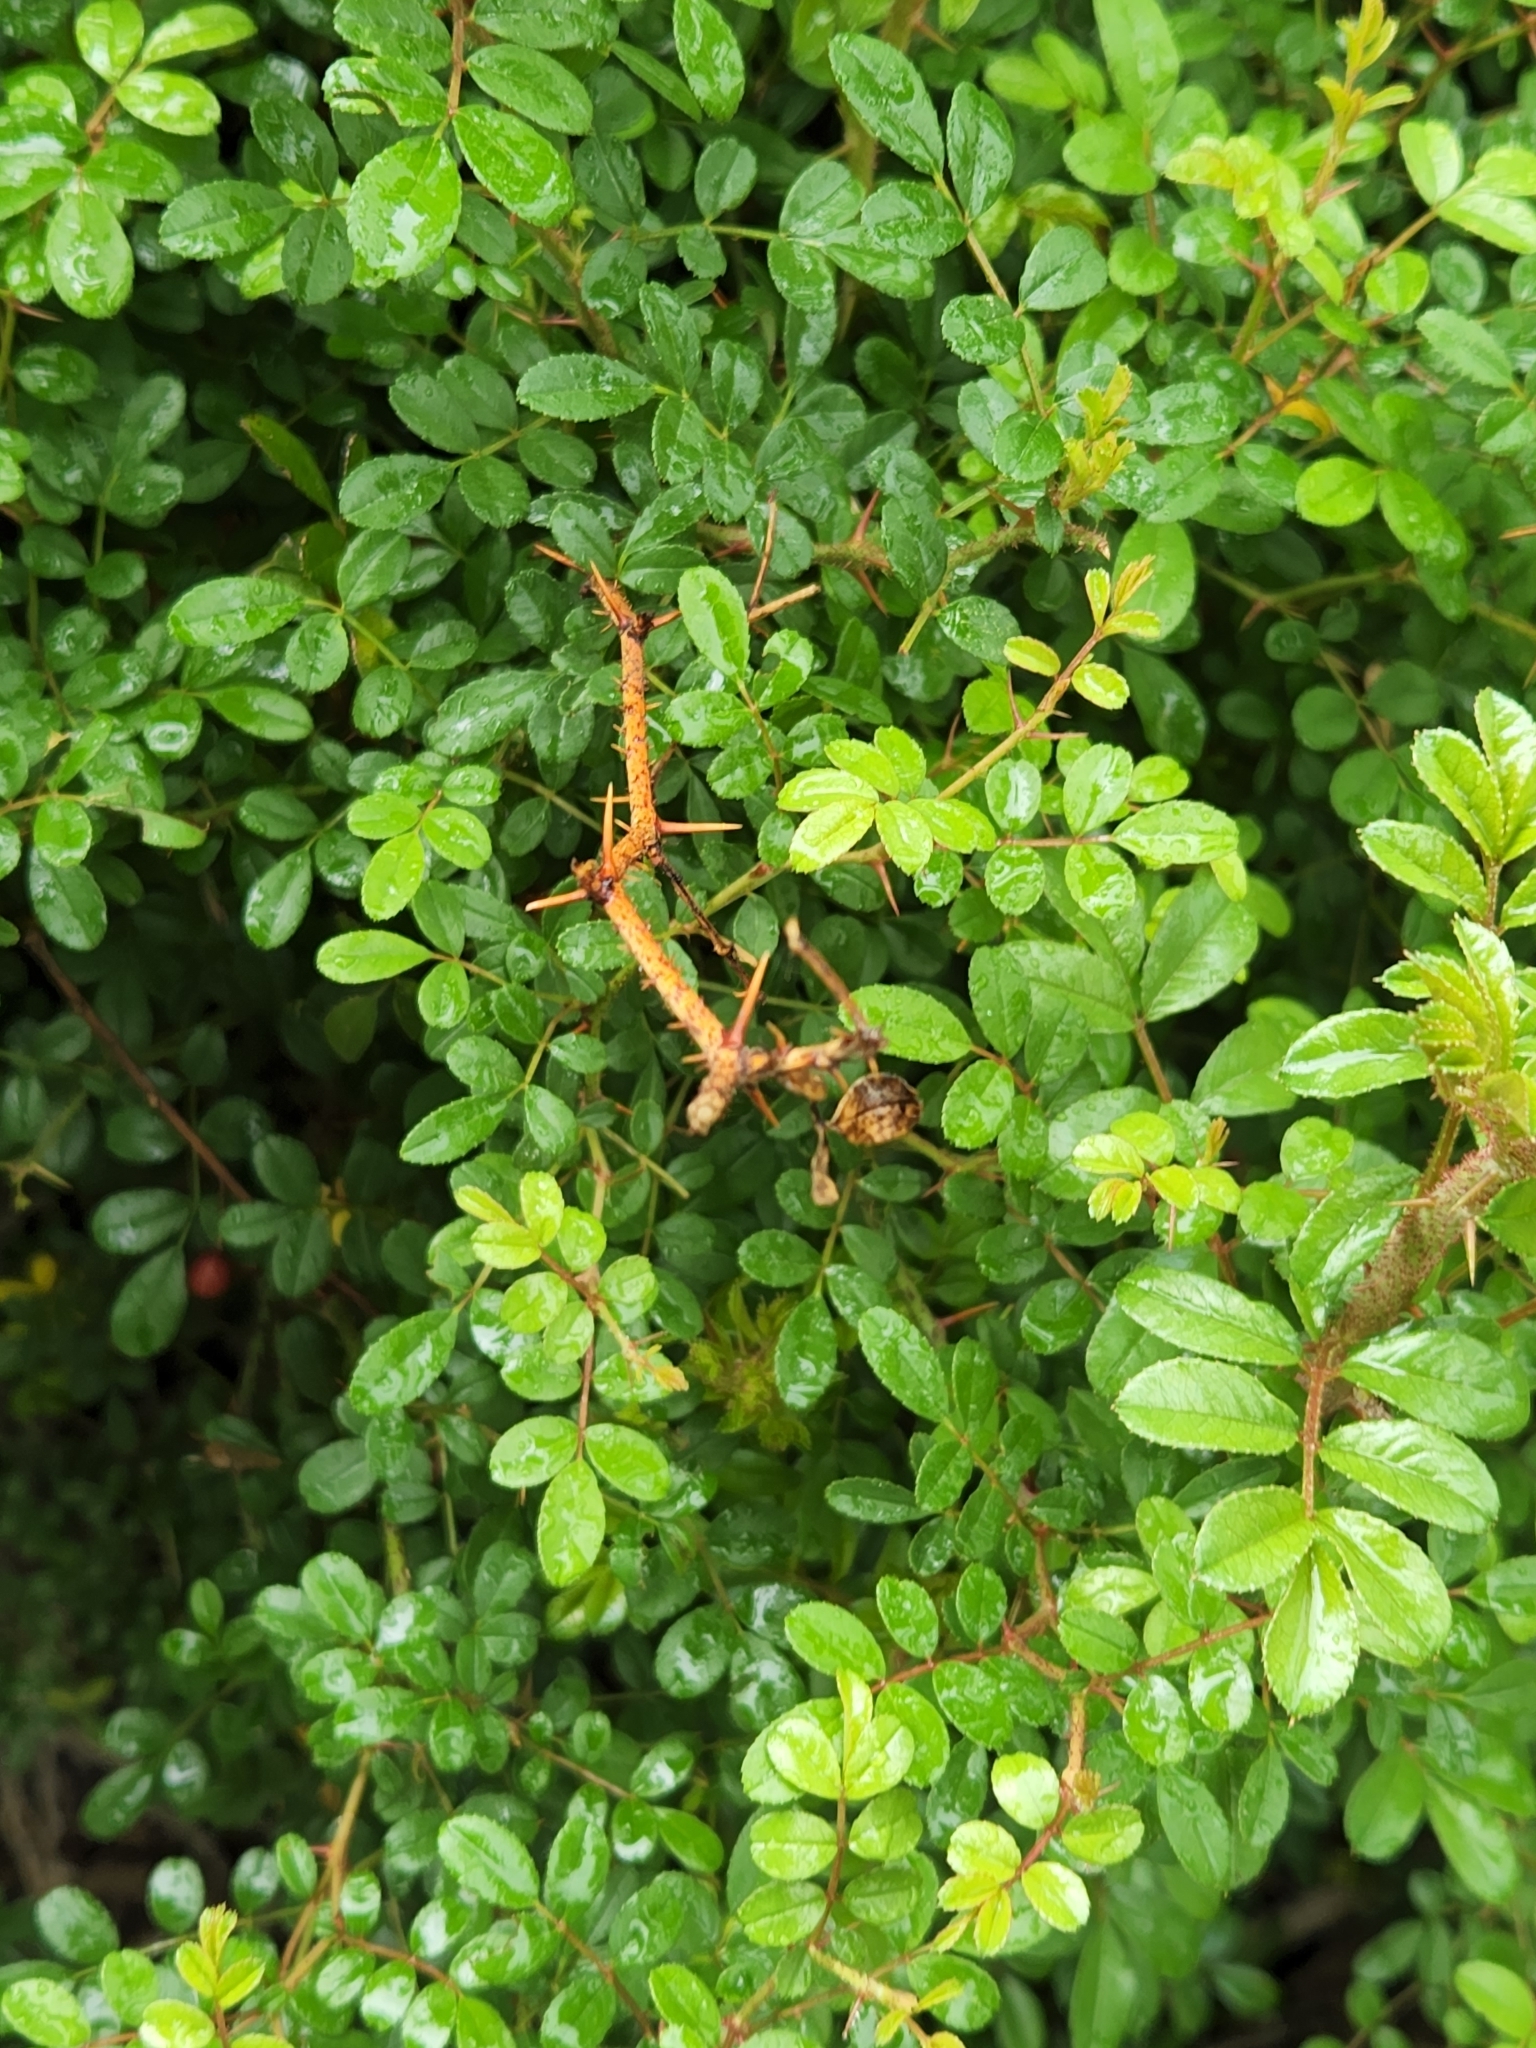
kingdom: Plantae
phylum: Tracheophyta
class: Magnoliopsida
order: Rosales
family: Rosaceae
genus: Rosa
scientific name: Rosa bracteata
